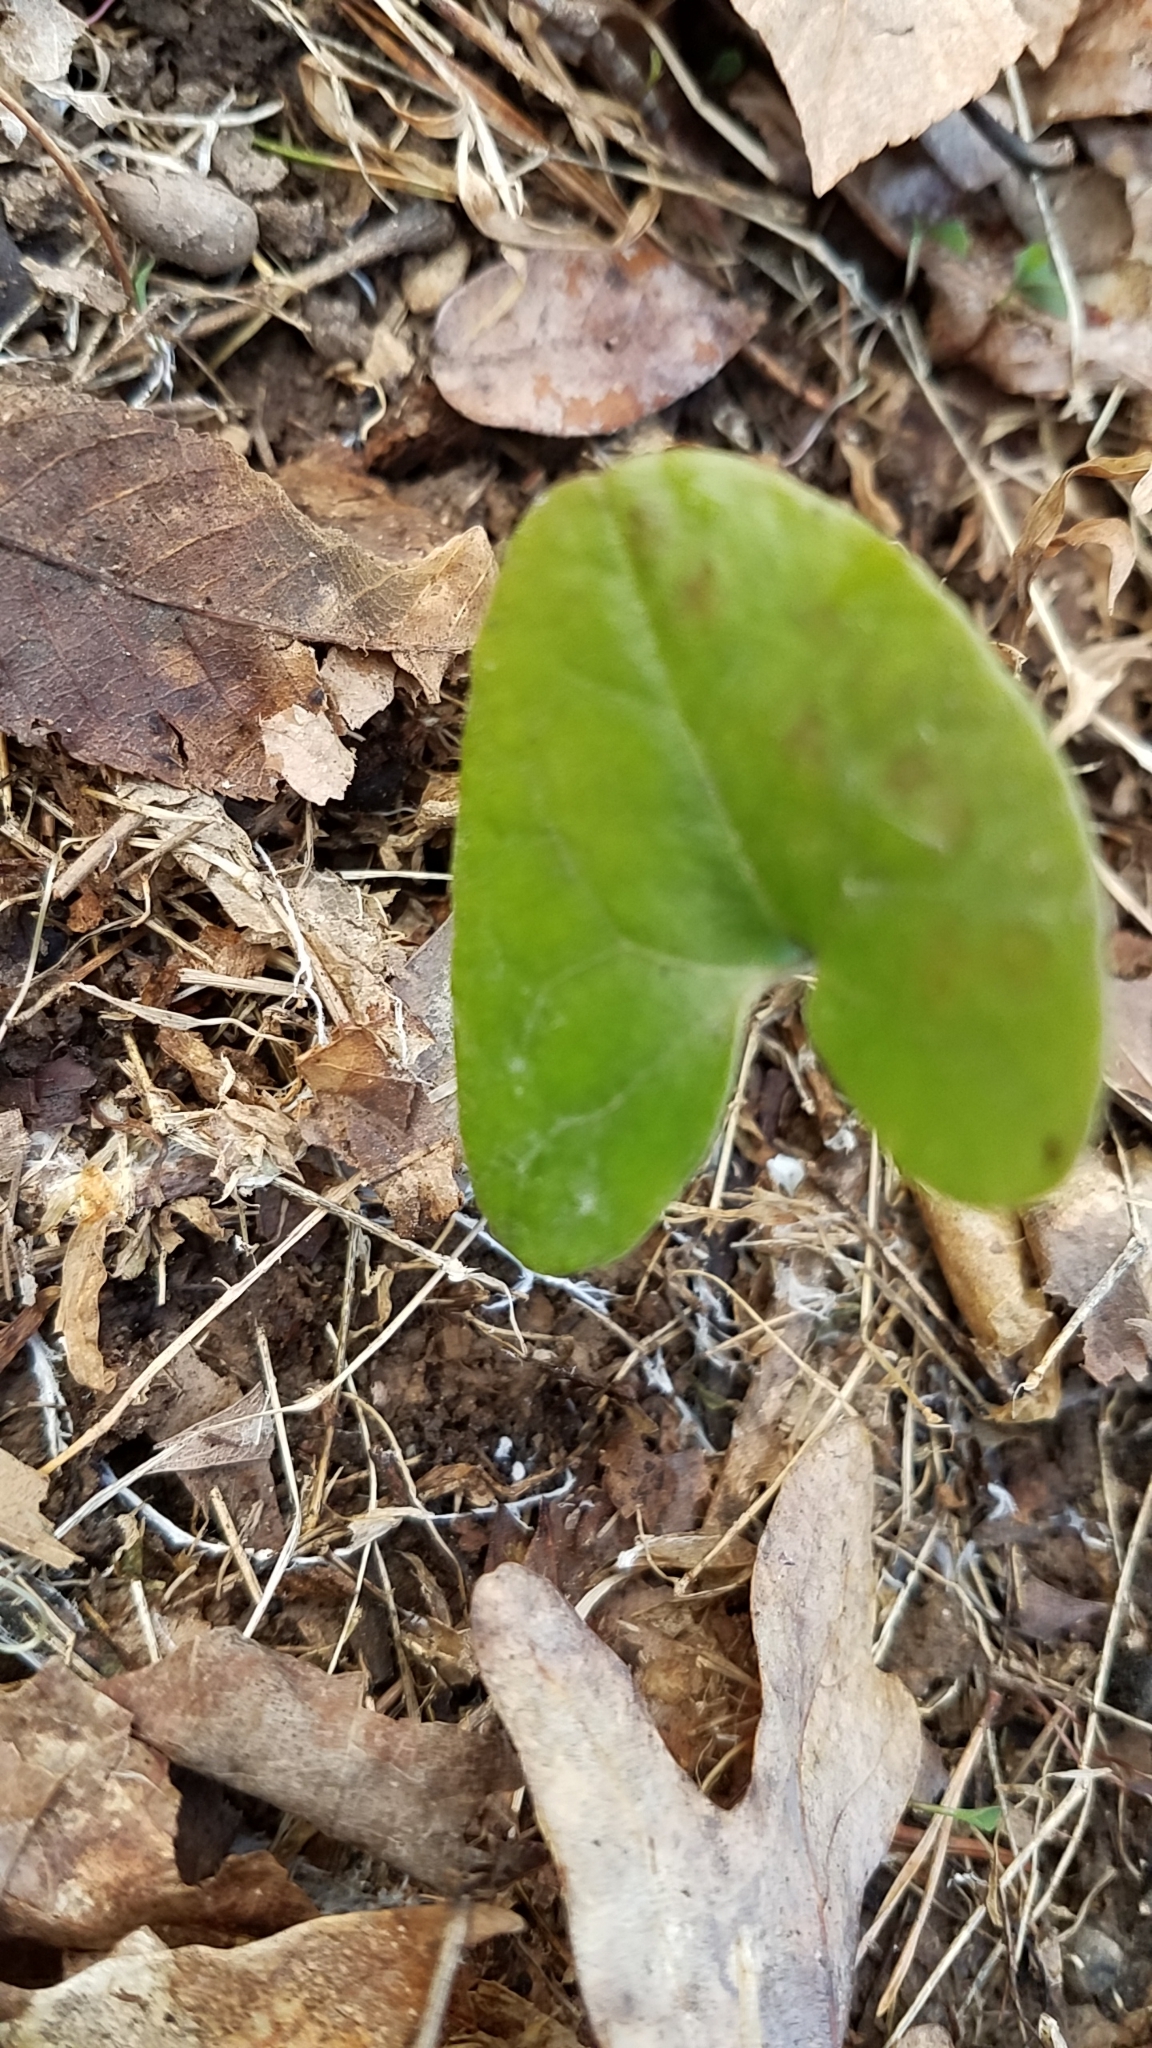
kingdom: Plantae
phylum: Tracheophyta
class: Magnoliopsida
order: Piperales
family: Aristolochiaceae
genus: Hexastylis
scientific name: Hexastylis arifolia
